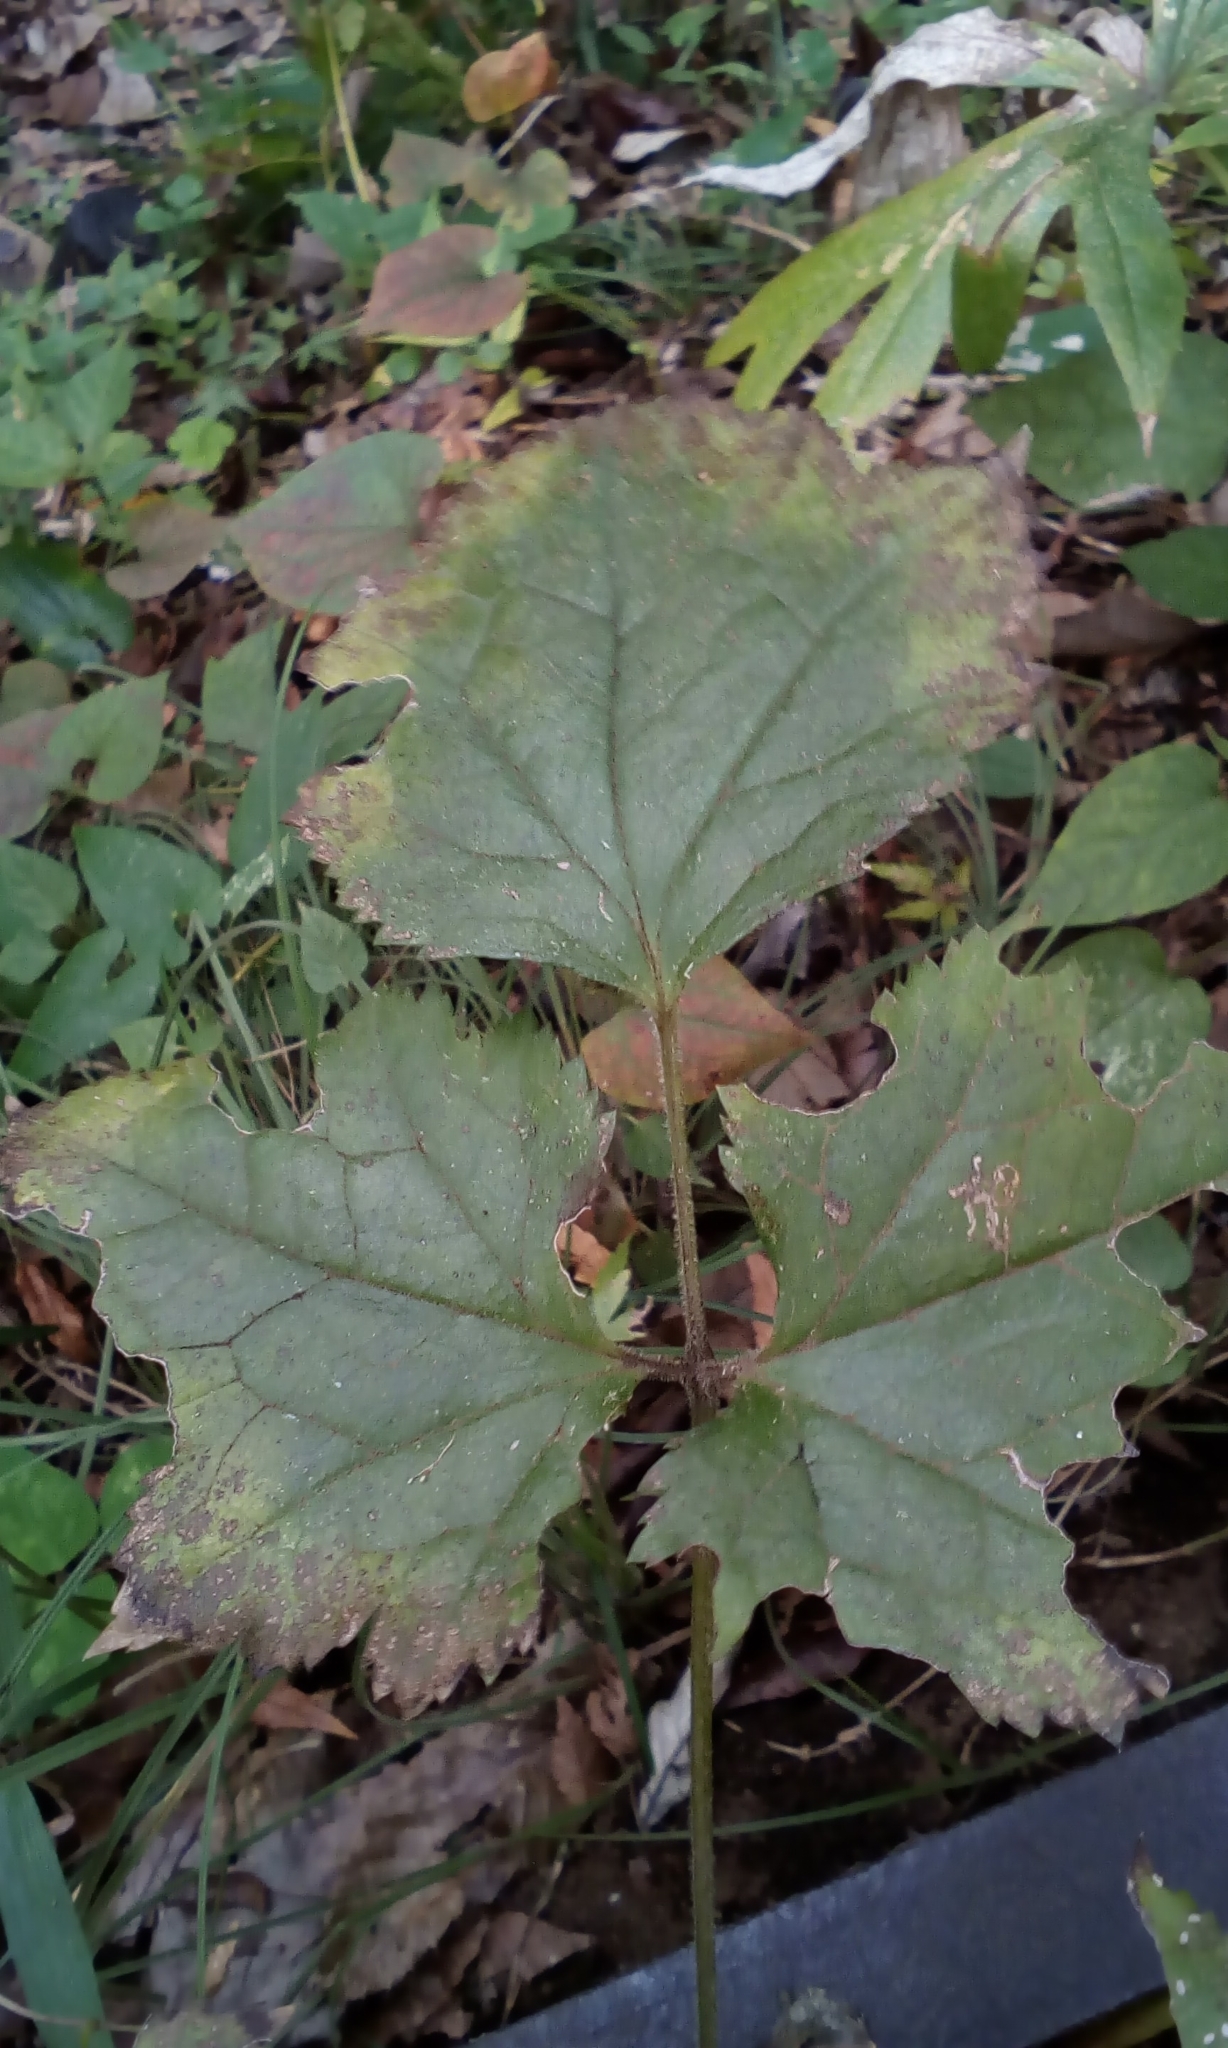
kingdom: Plantae
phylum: Tracheophyta
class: Magnoliopsida
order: Ranunculales
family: Ranunculaceae
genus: Actaea
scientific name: Actaea biternata
